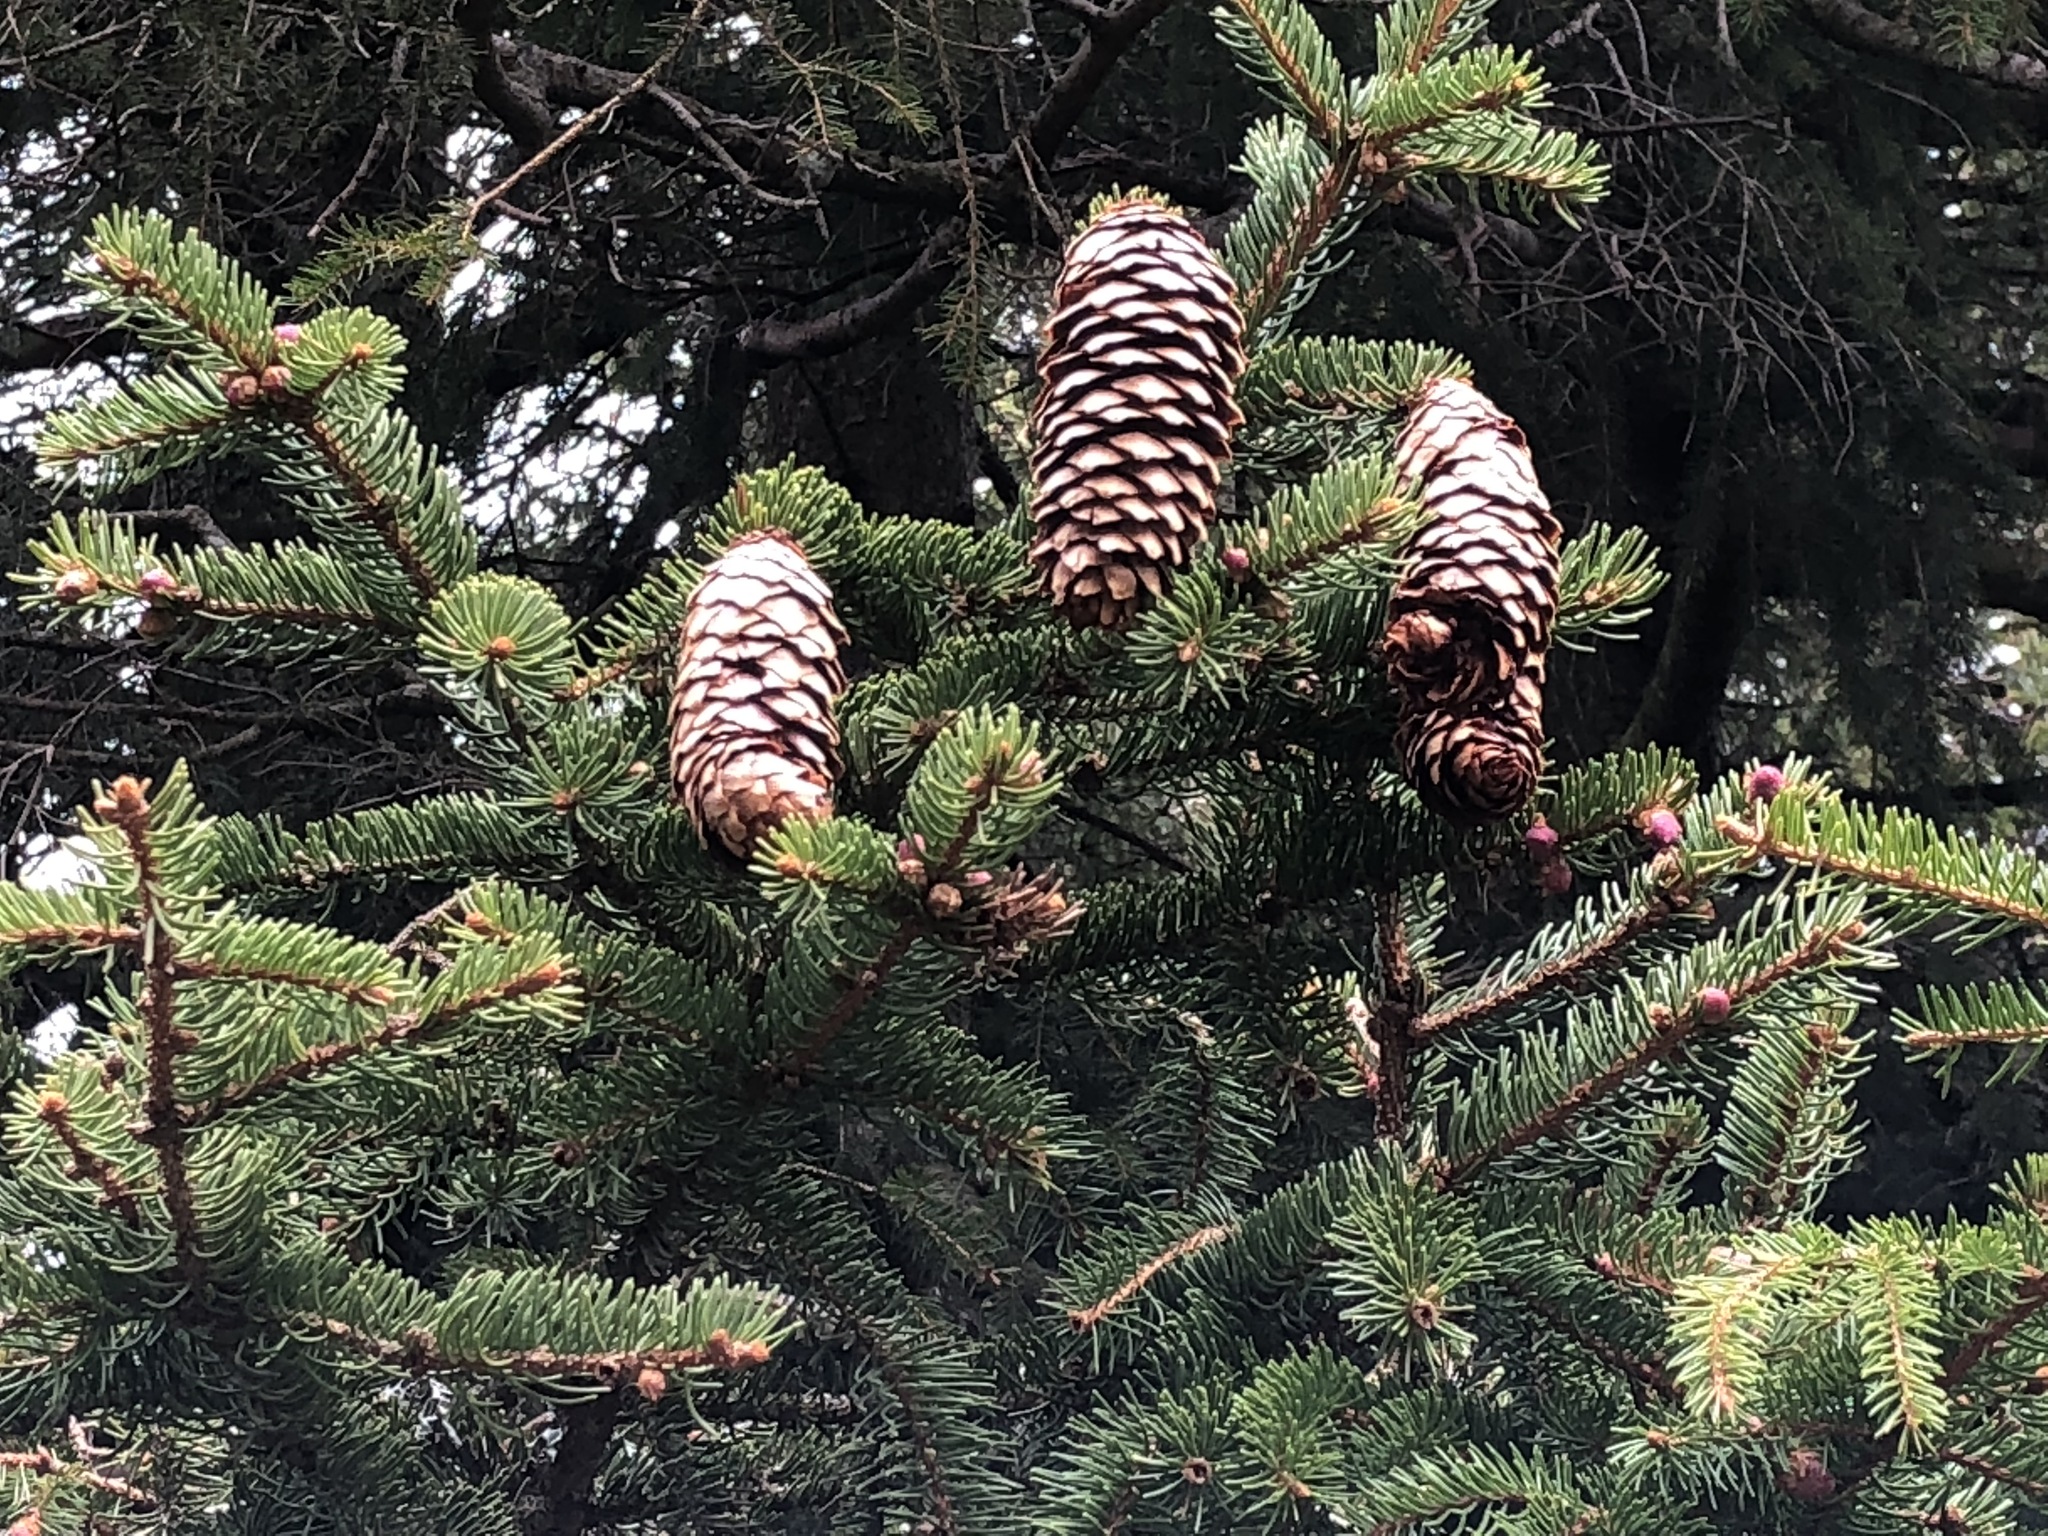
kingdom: Plantae
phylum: Tracheophyta
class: Pinopsida
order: Pinales
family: Pinaceae
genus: Picea
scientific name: Picea abies
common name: Norway spruce
